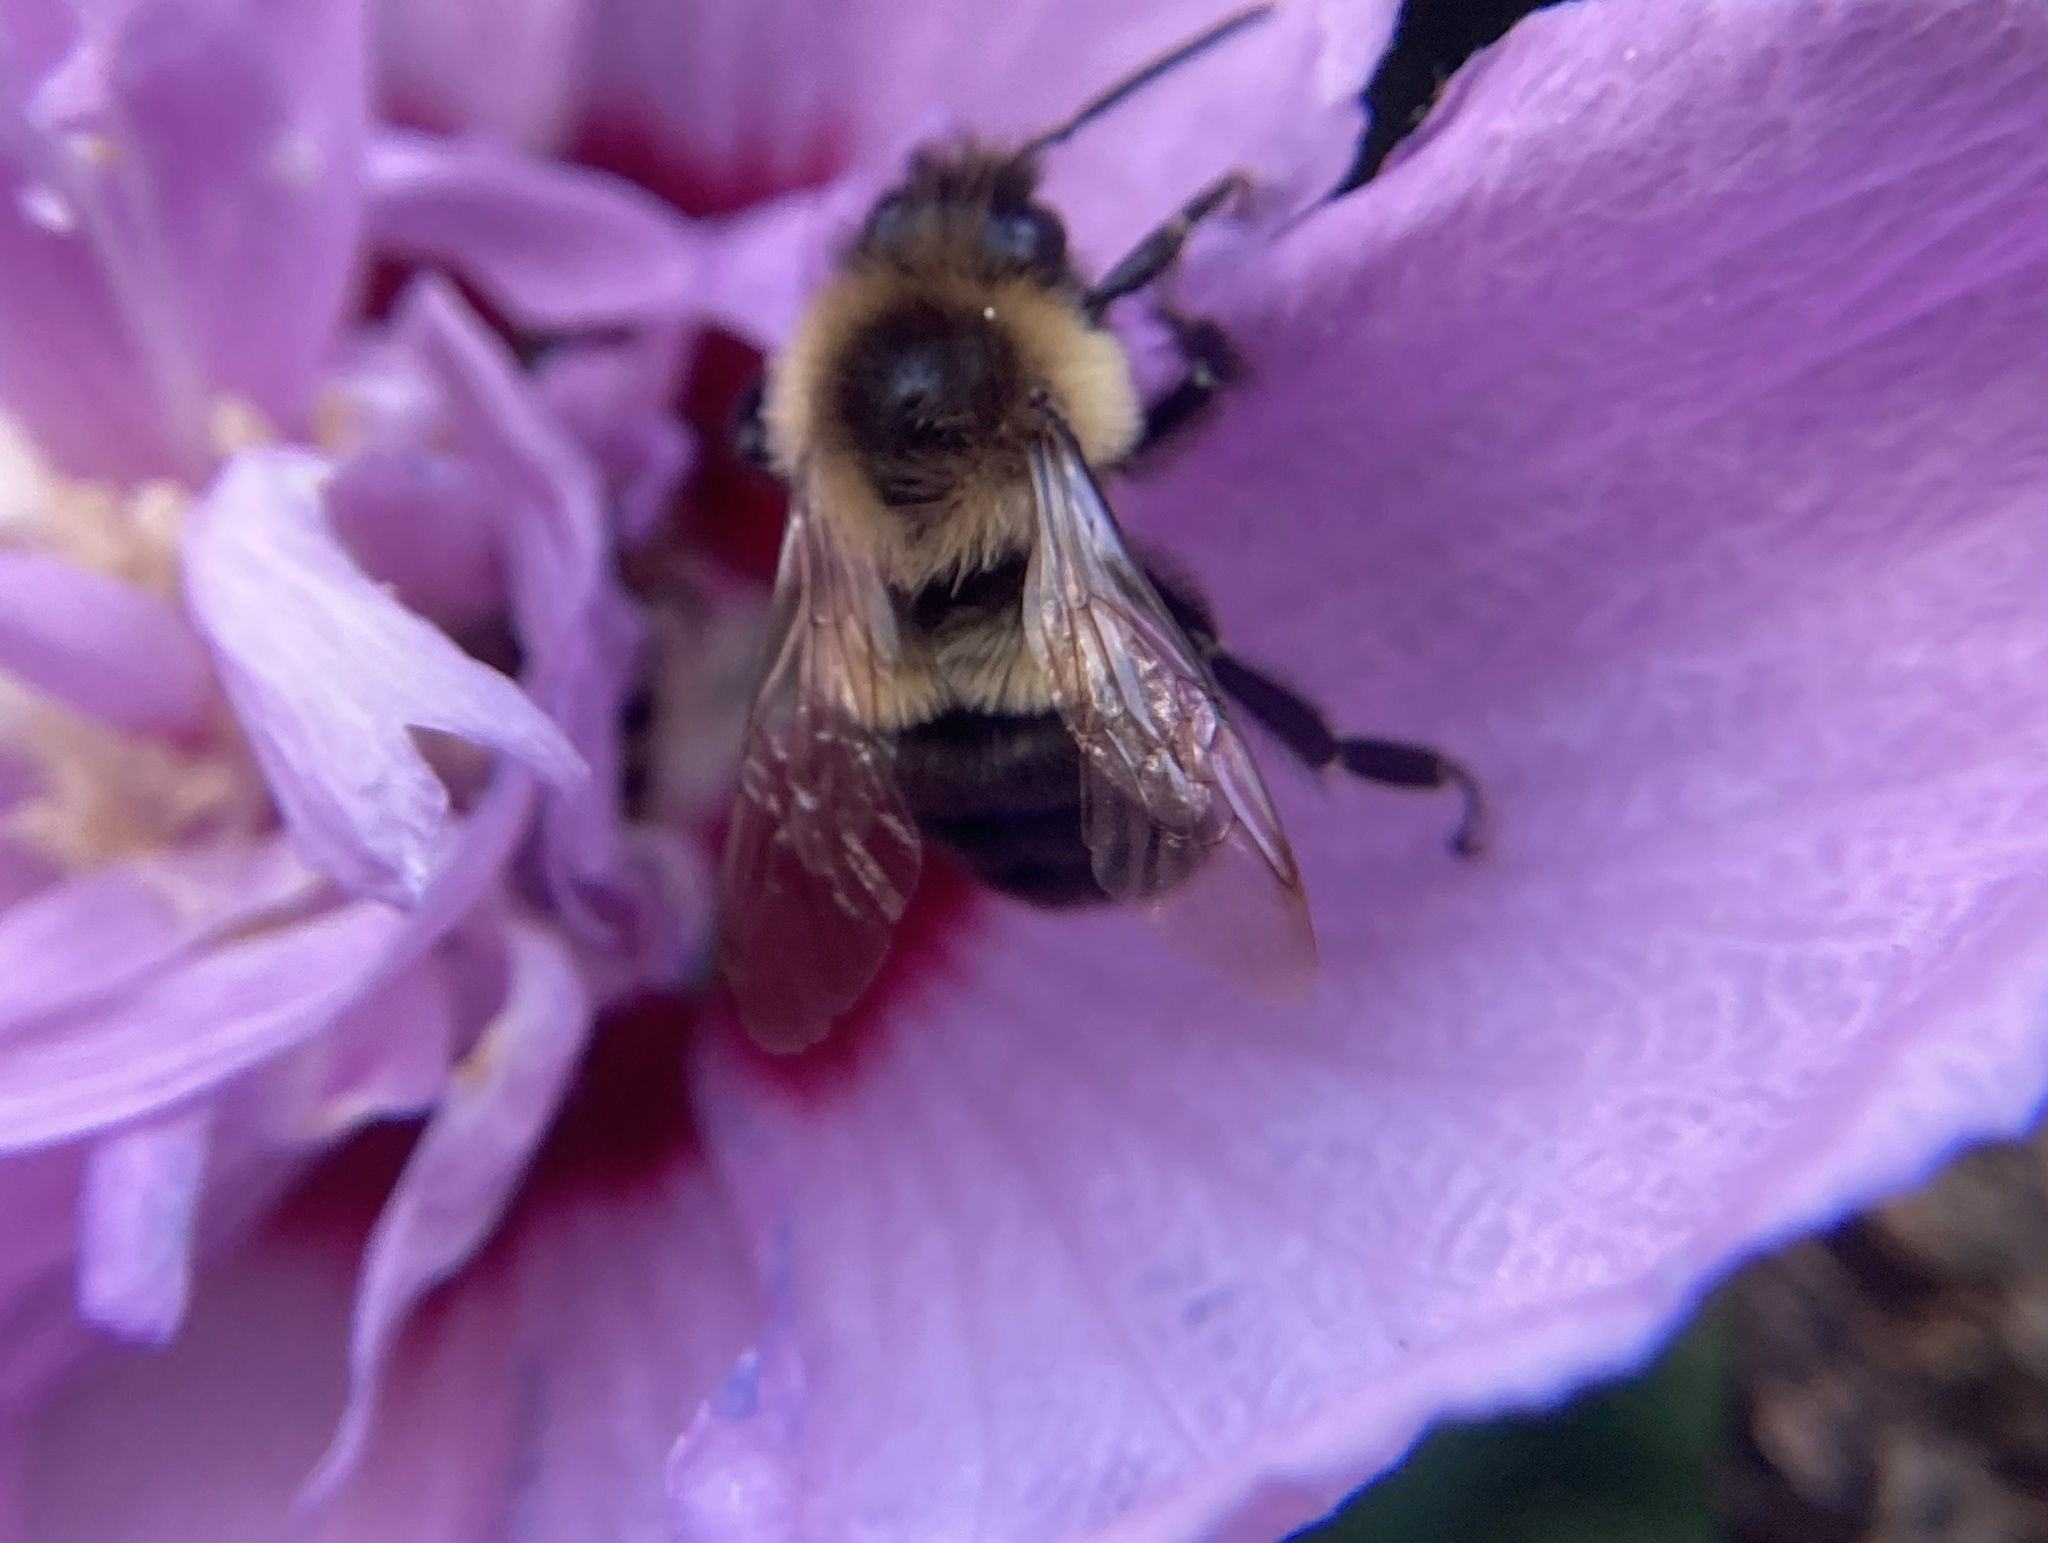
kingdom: Animalia
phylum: Arthropoda
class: Insecta
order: Hymenoptera
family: Apidae
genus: Bombus
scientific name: Bombus impatiens
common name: Common eastern bumble bee
